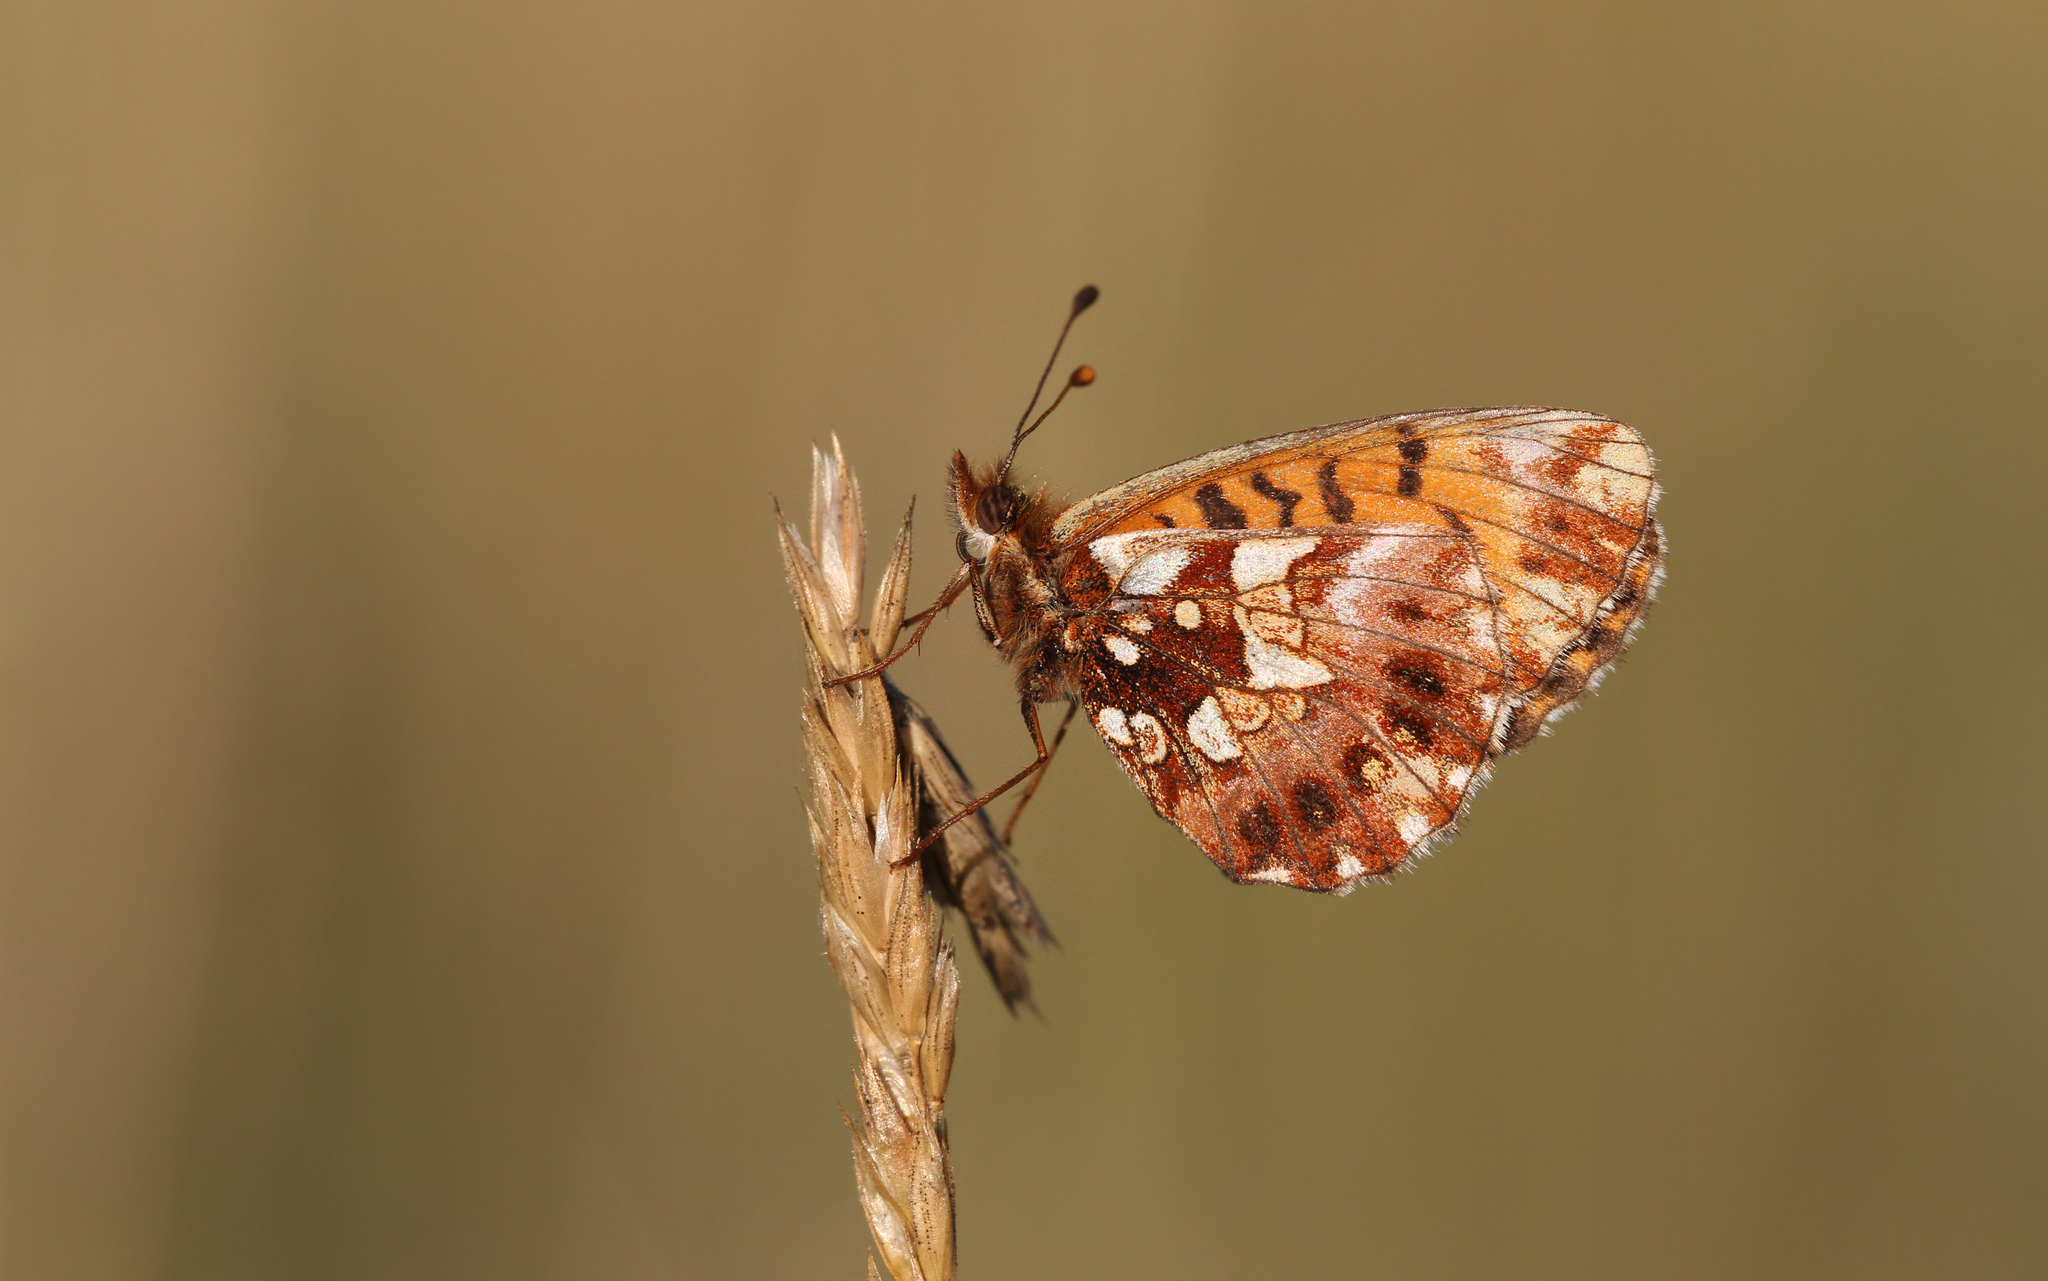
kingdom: Animalia
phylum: Arthropoda
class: Insecta
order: Lepidoptera
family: Nymphalidae
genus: Boloria
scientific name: Boloria dia
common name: Weaver's fritillary
